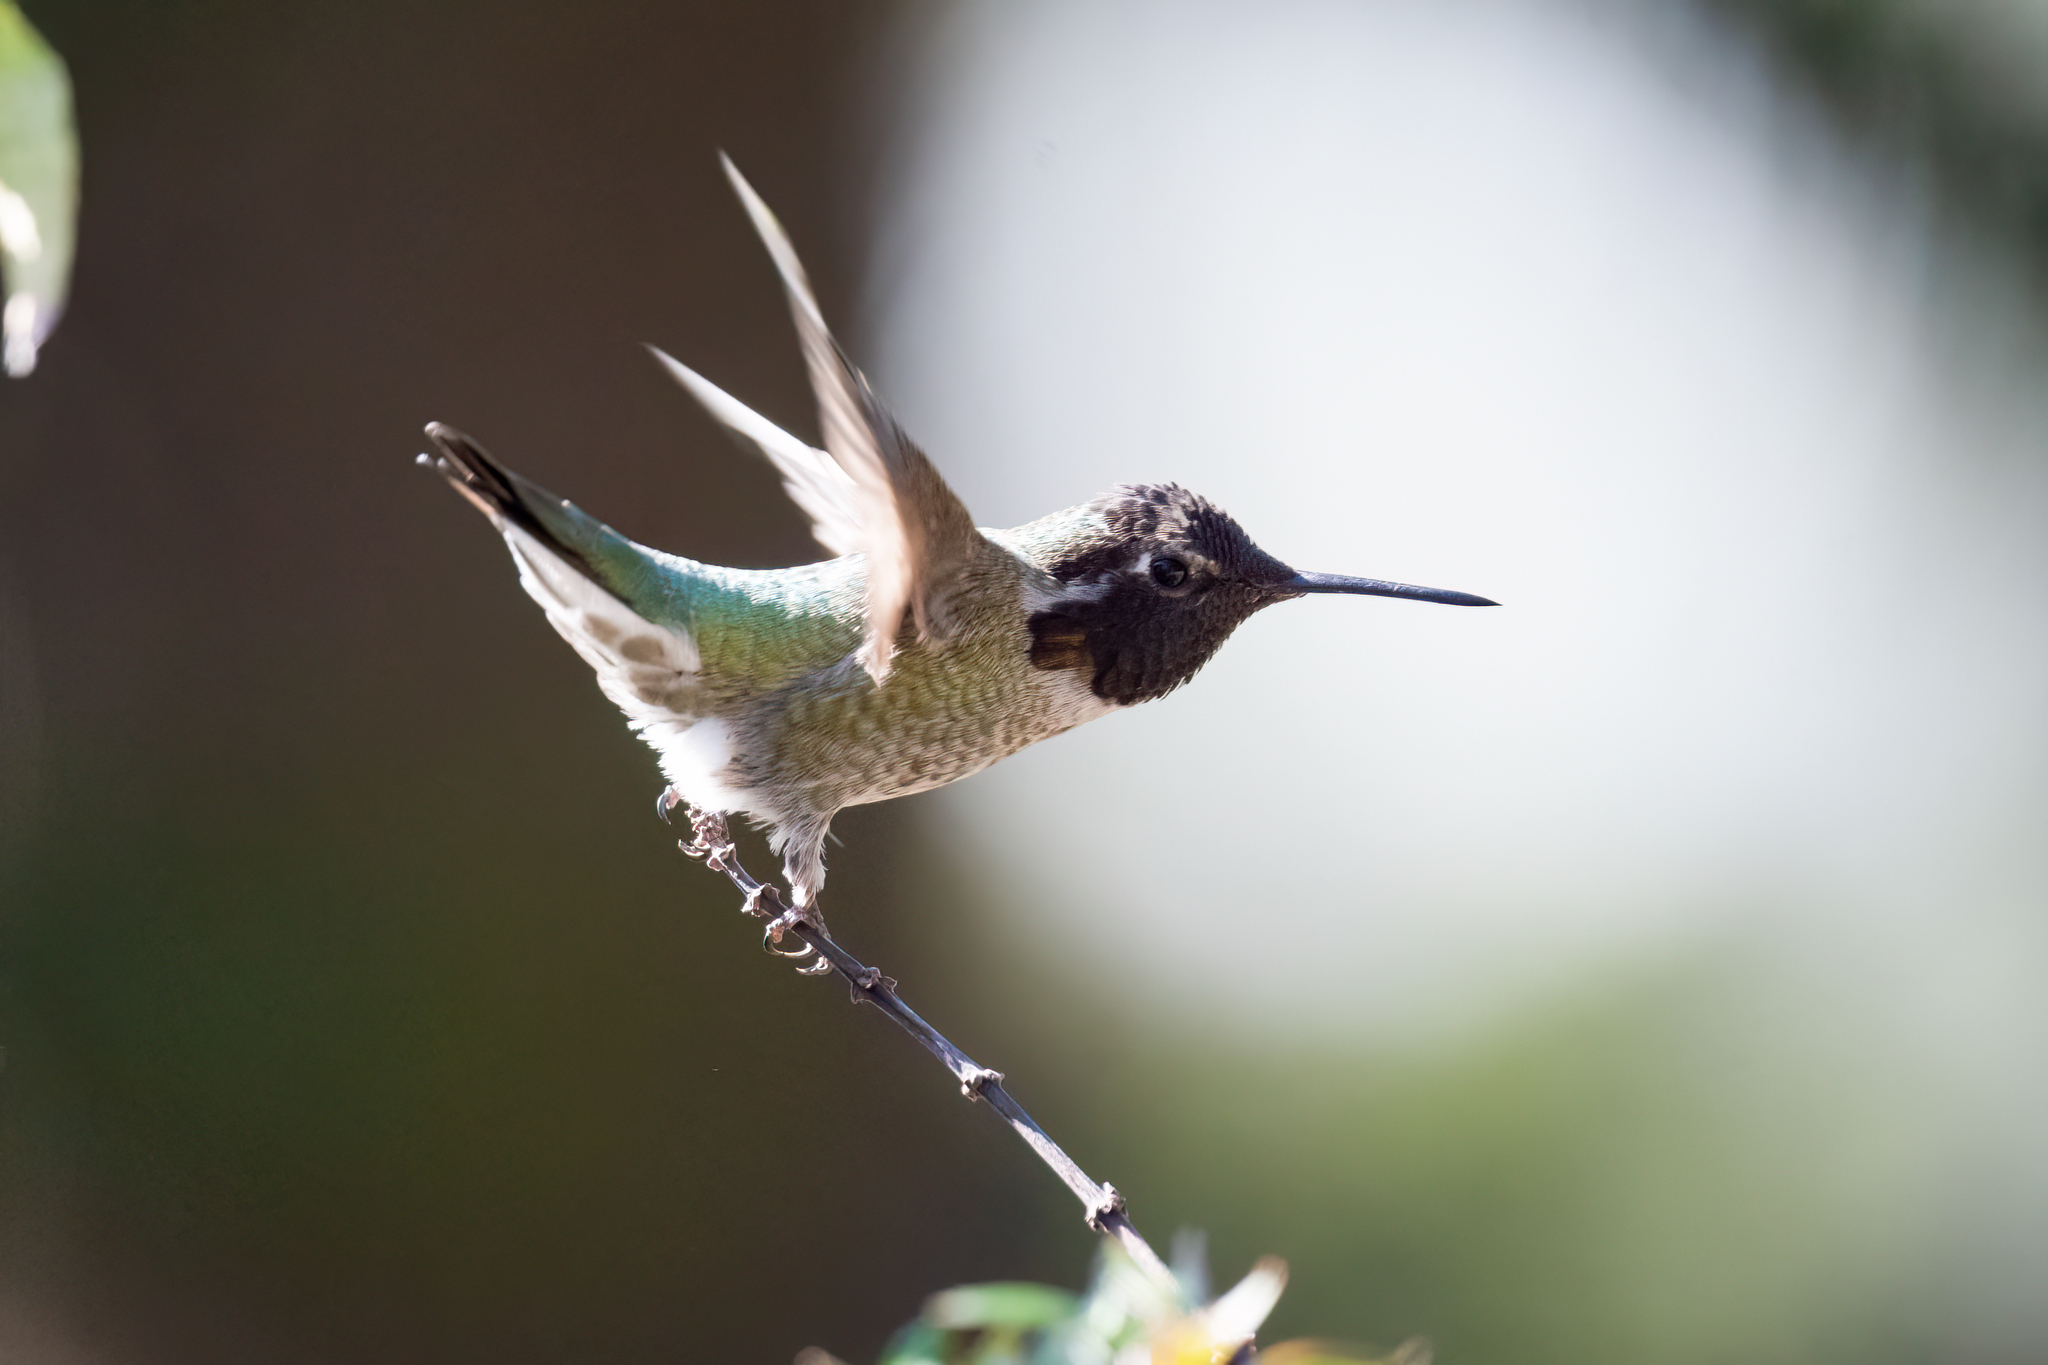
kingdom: Animalia
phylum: Chordata
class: Aves
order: Apodiformes
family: Trochilidae
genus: Calypte
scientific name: Calypte anna
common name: Anna's hummingbird
